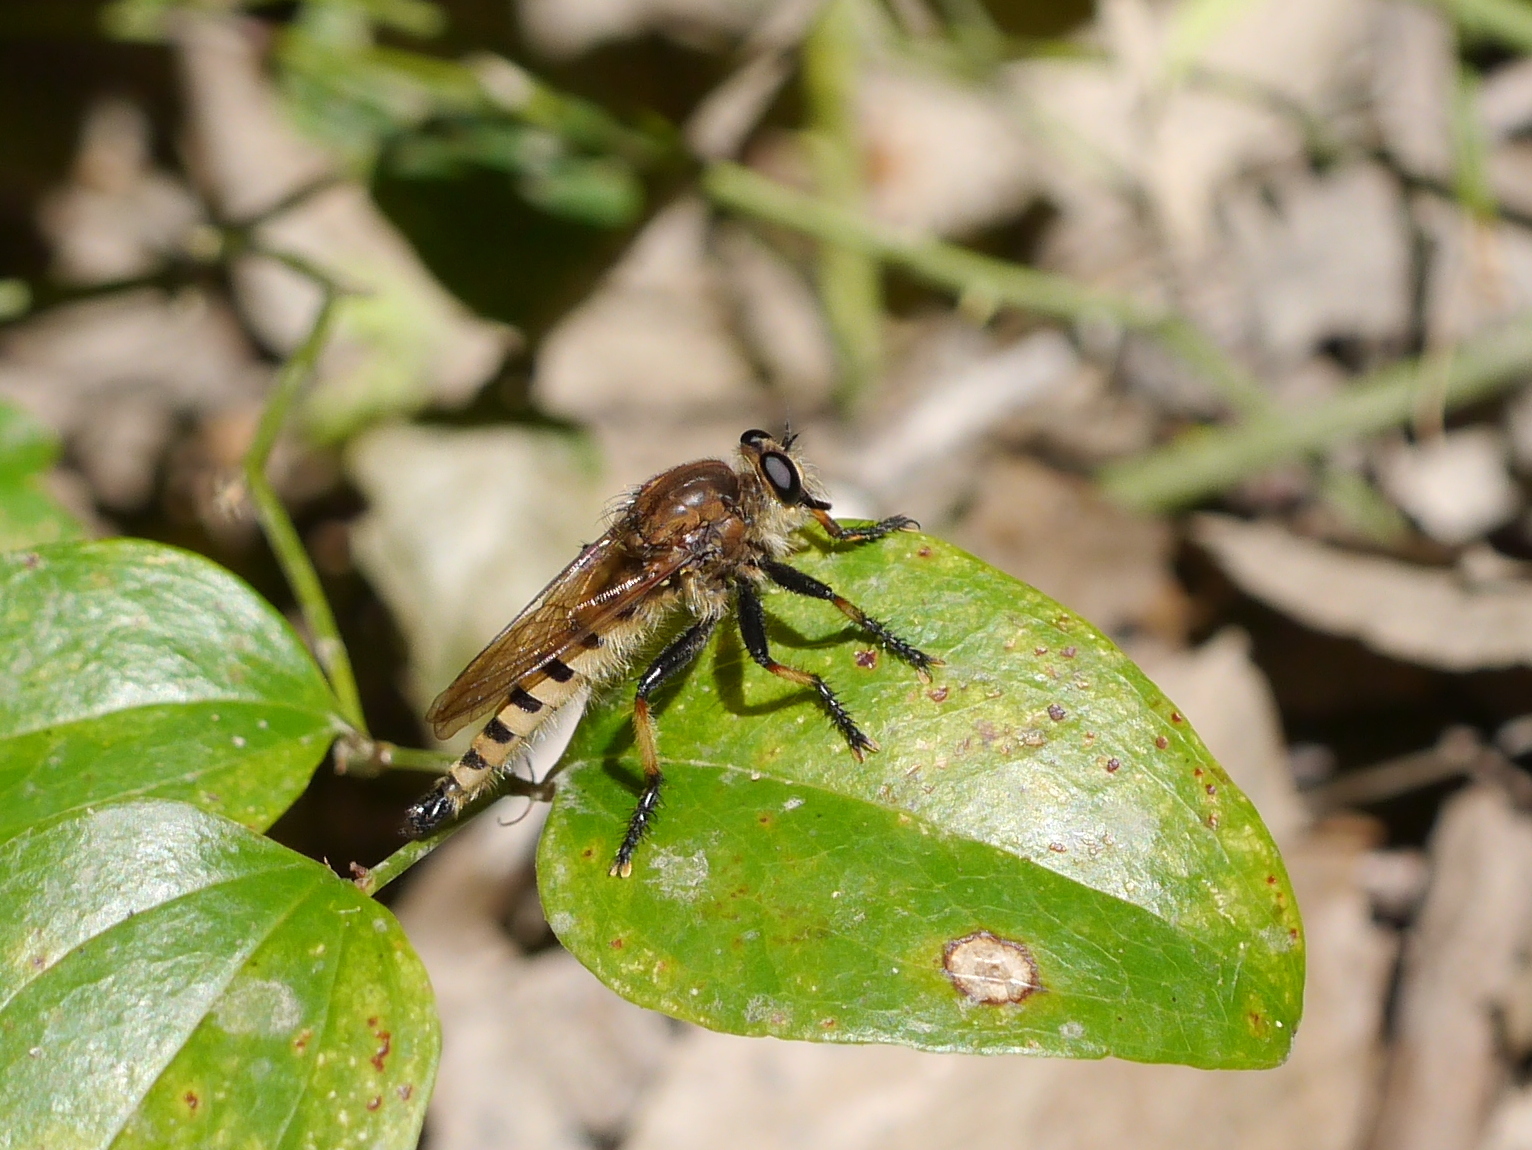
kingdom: Animalia
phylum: Arthropoda
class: Insecta
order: Diptera
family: Asilidae
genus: Promachus
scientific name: Promachus rufipes
